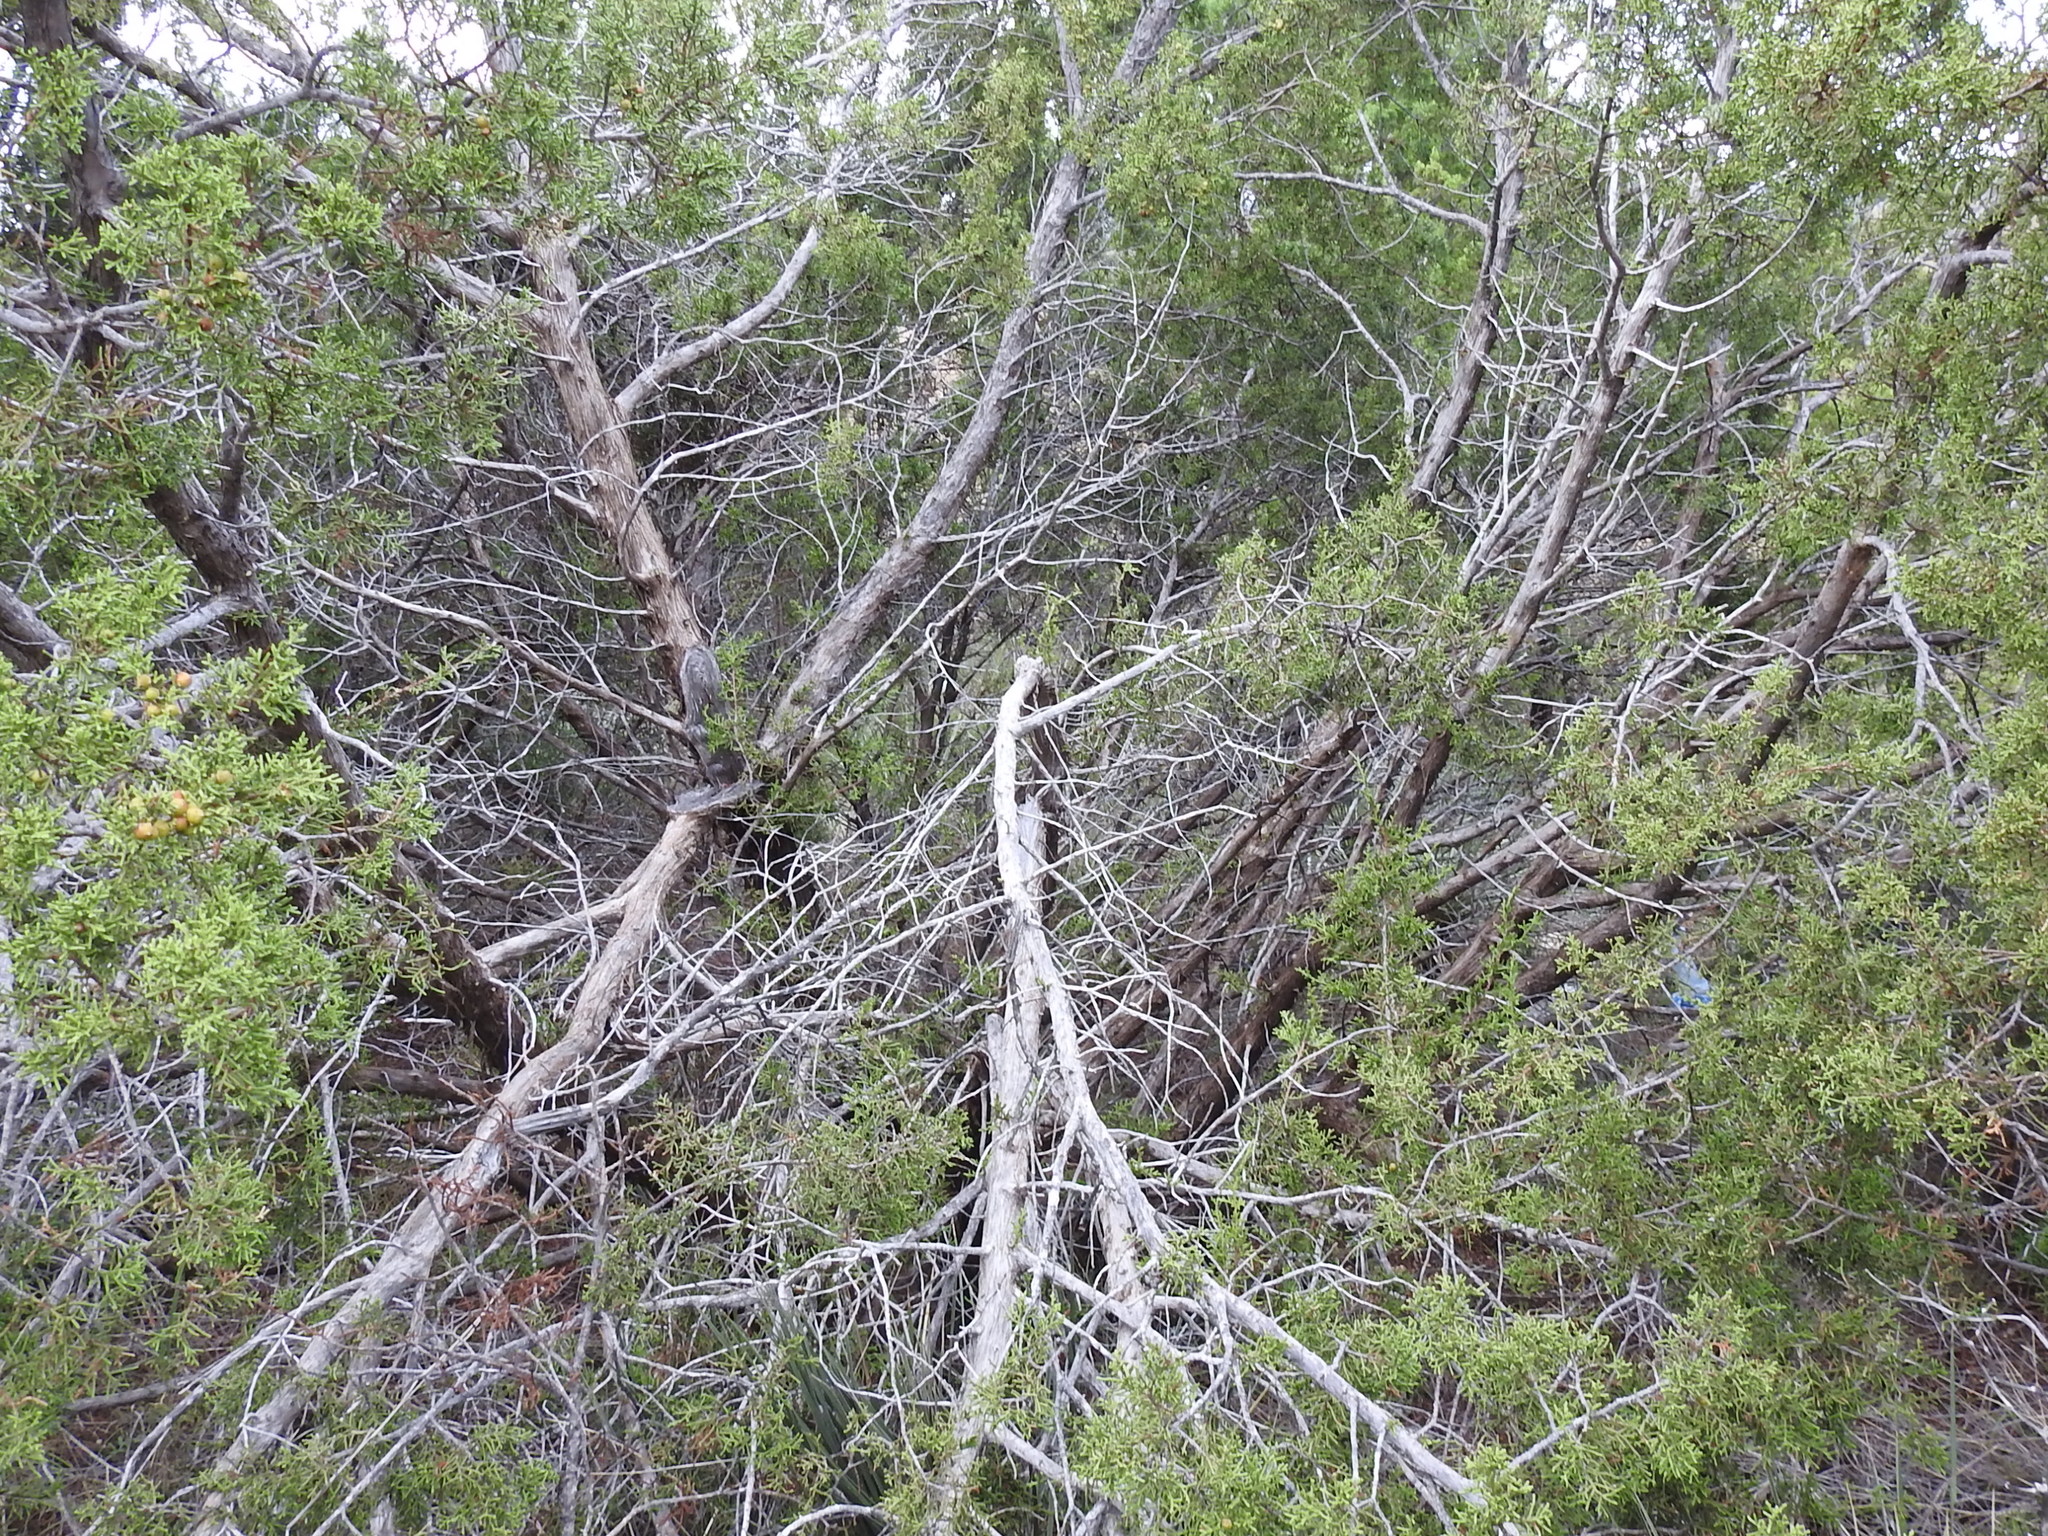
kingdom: Plantae
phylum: Tracheophyta
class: Pinopsida
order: Pinales
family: Cupressaceae
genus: Juniperus
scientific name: Juniperus pinchotii
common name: Pinchot juniper
